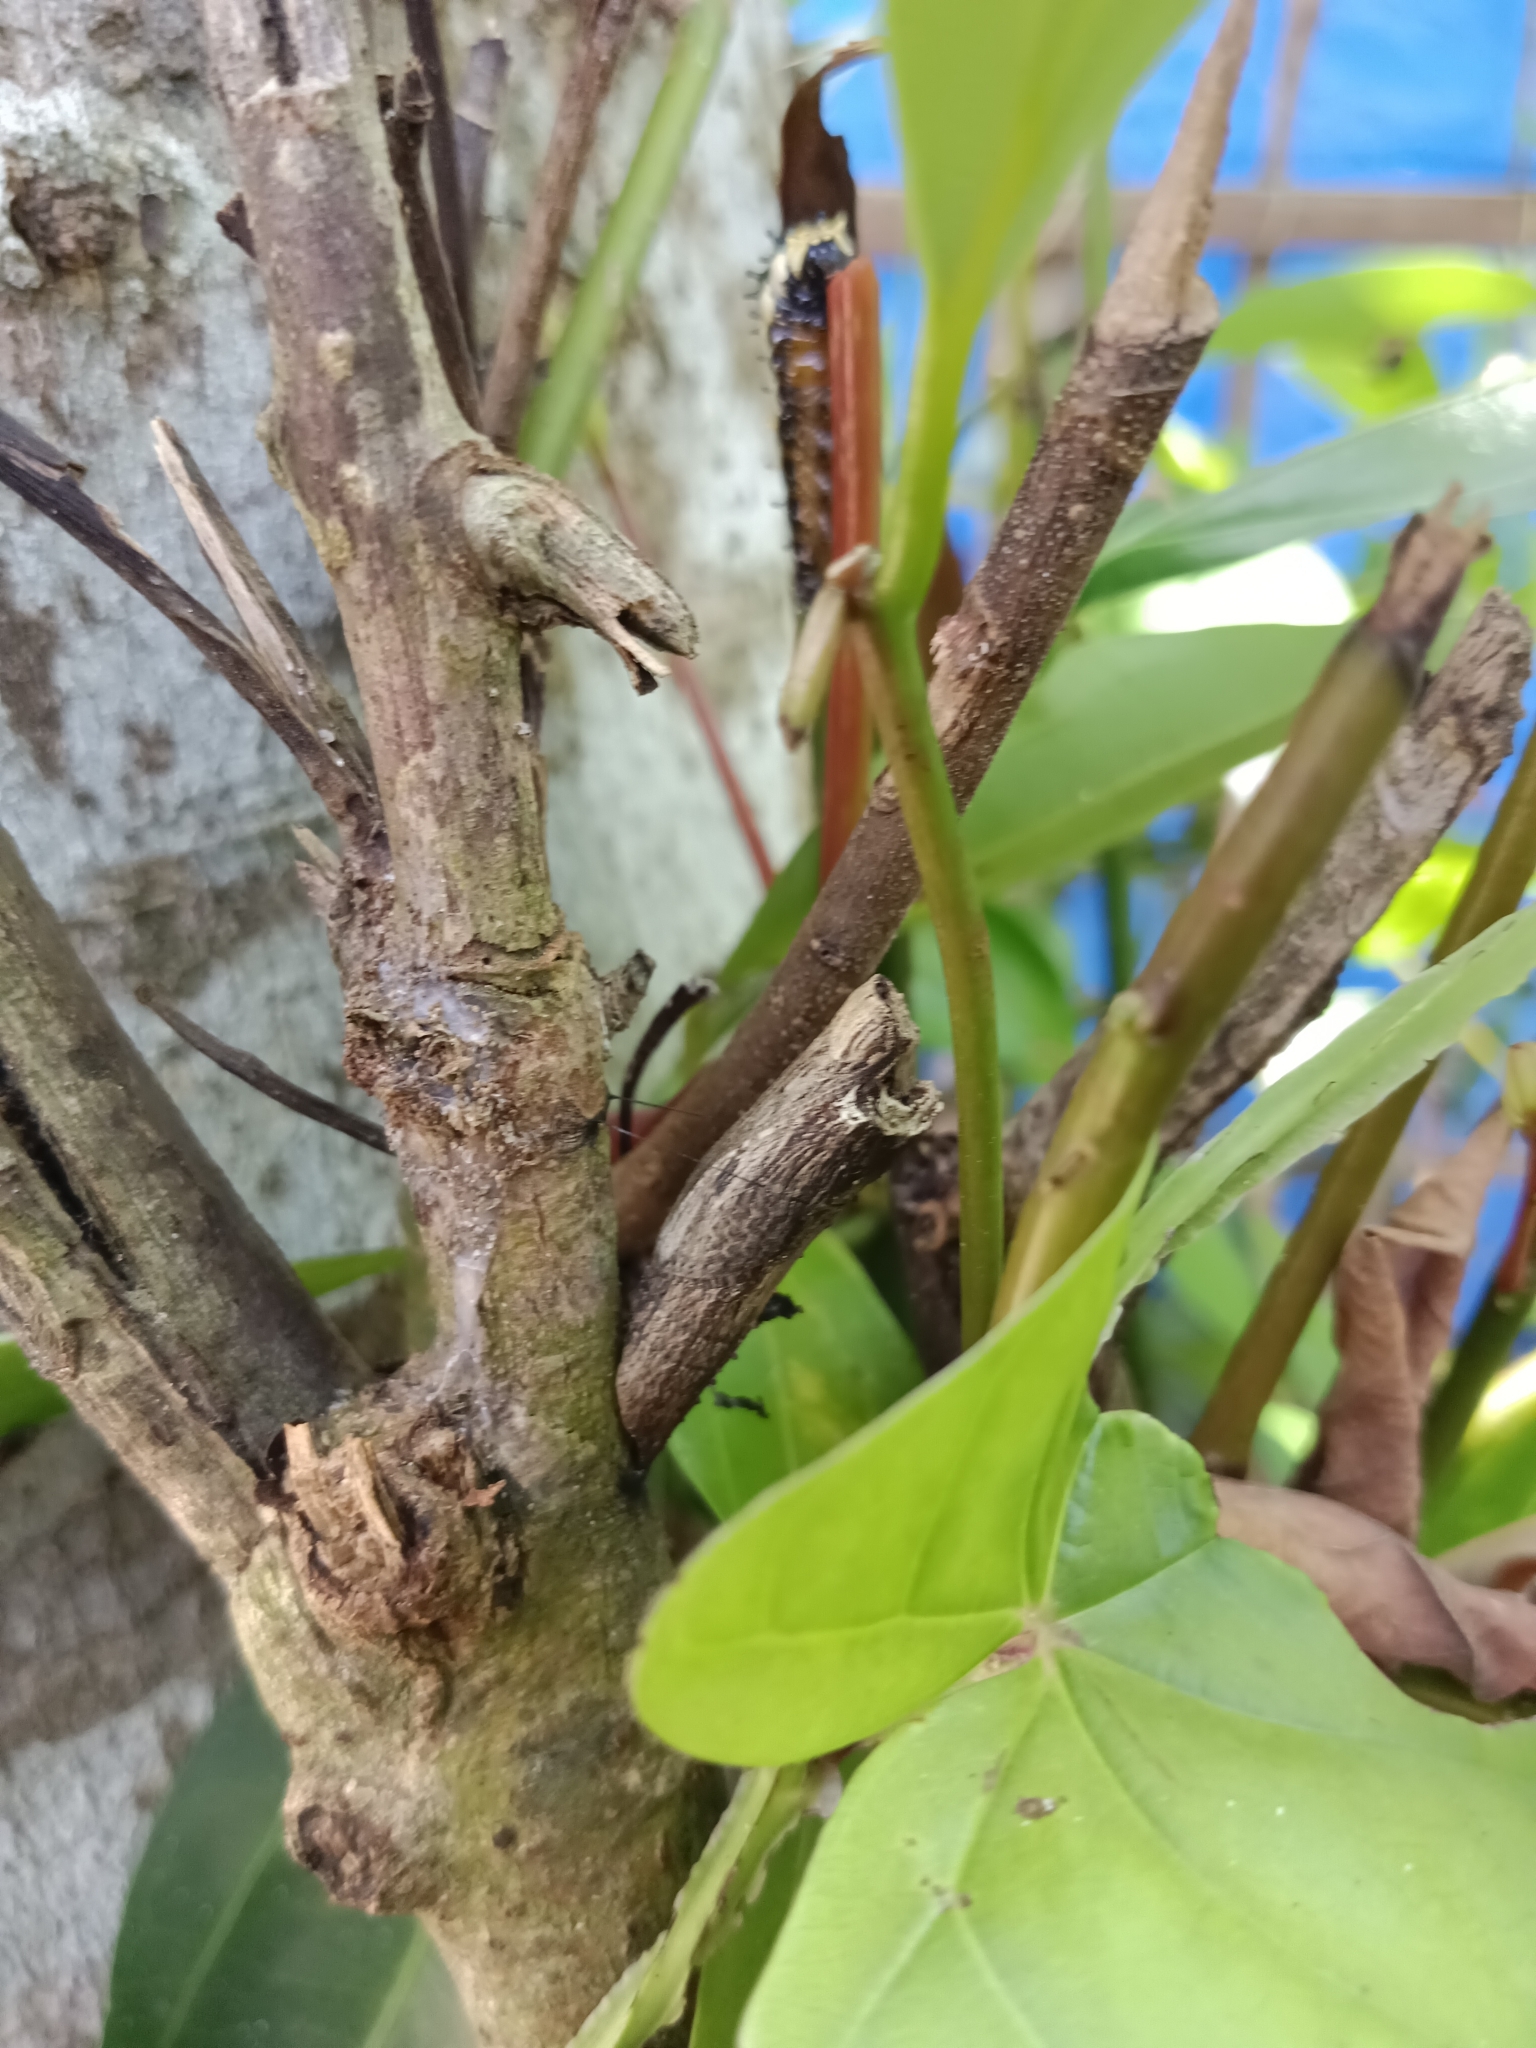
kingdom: Animalia
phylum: Arthropoda
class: Insecta
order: Lepidoptera
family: Papilionidae
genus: Chilasa
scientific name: Chilasa clytia
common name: Common mime
